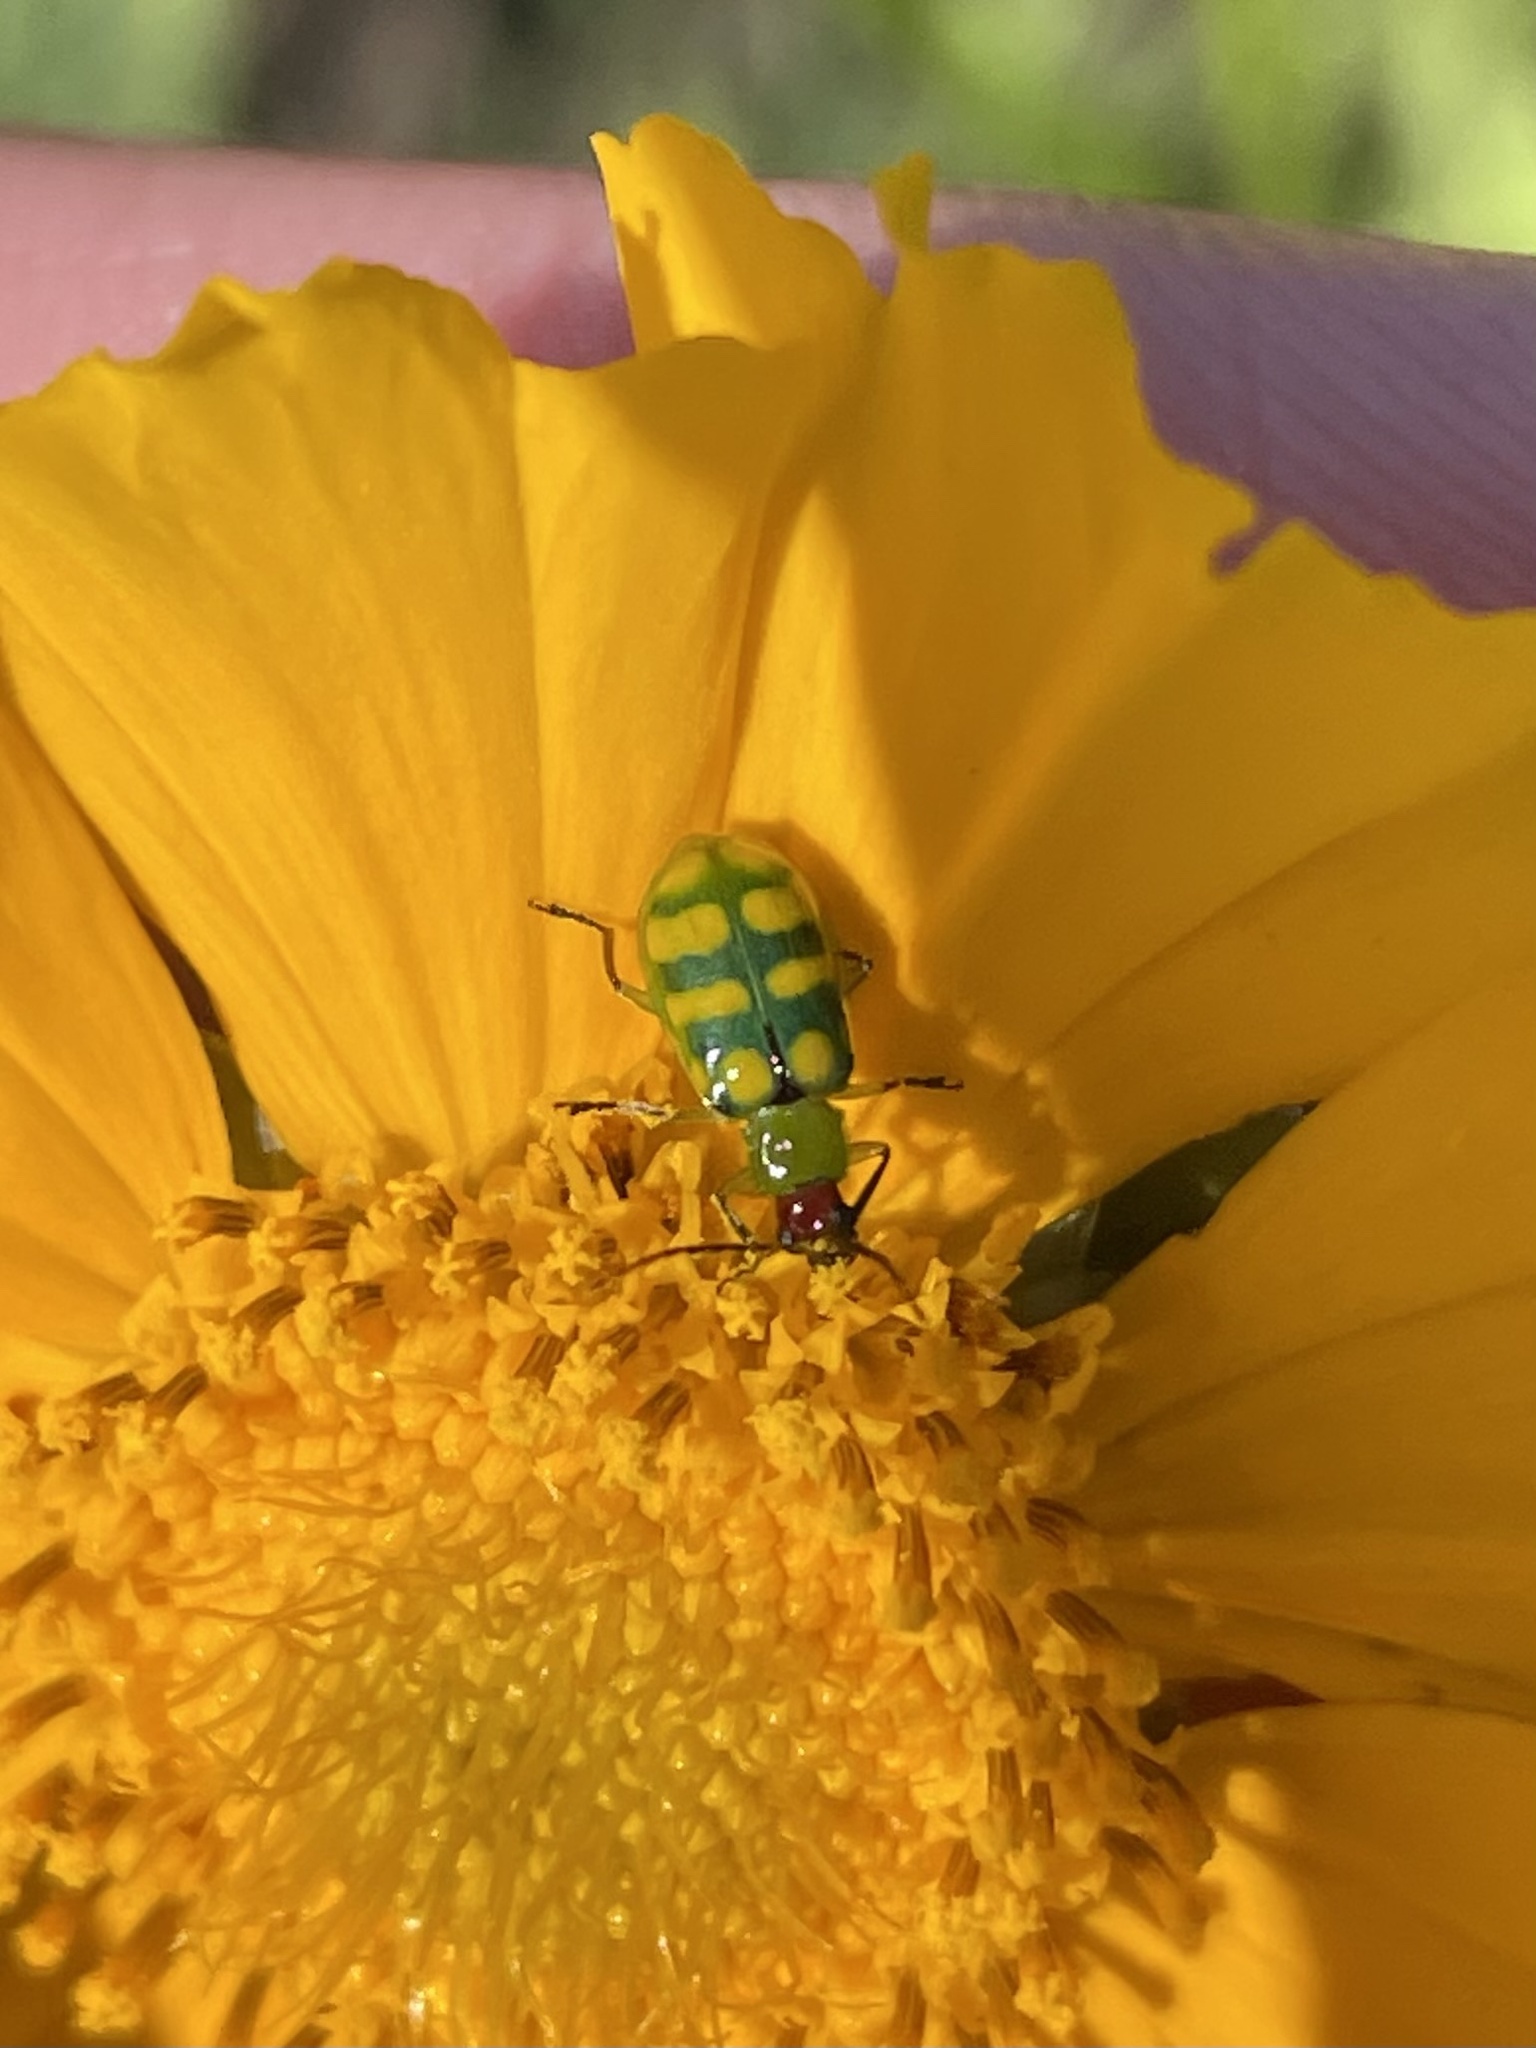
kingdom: Animalia
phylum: Arthropoda
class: Insecta
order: Coleoptera
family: Chrysomelidae
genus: Diabrotica
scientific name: Diabrotica balteata
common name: Leaf beetle
